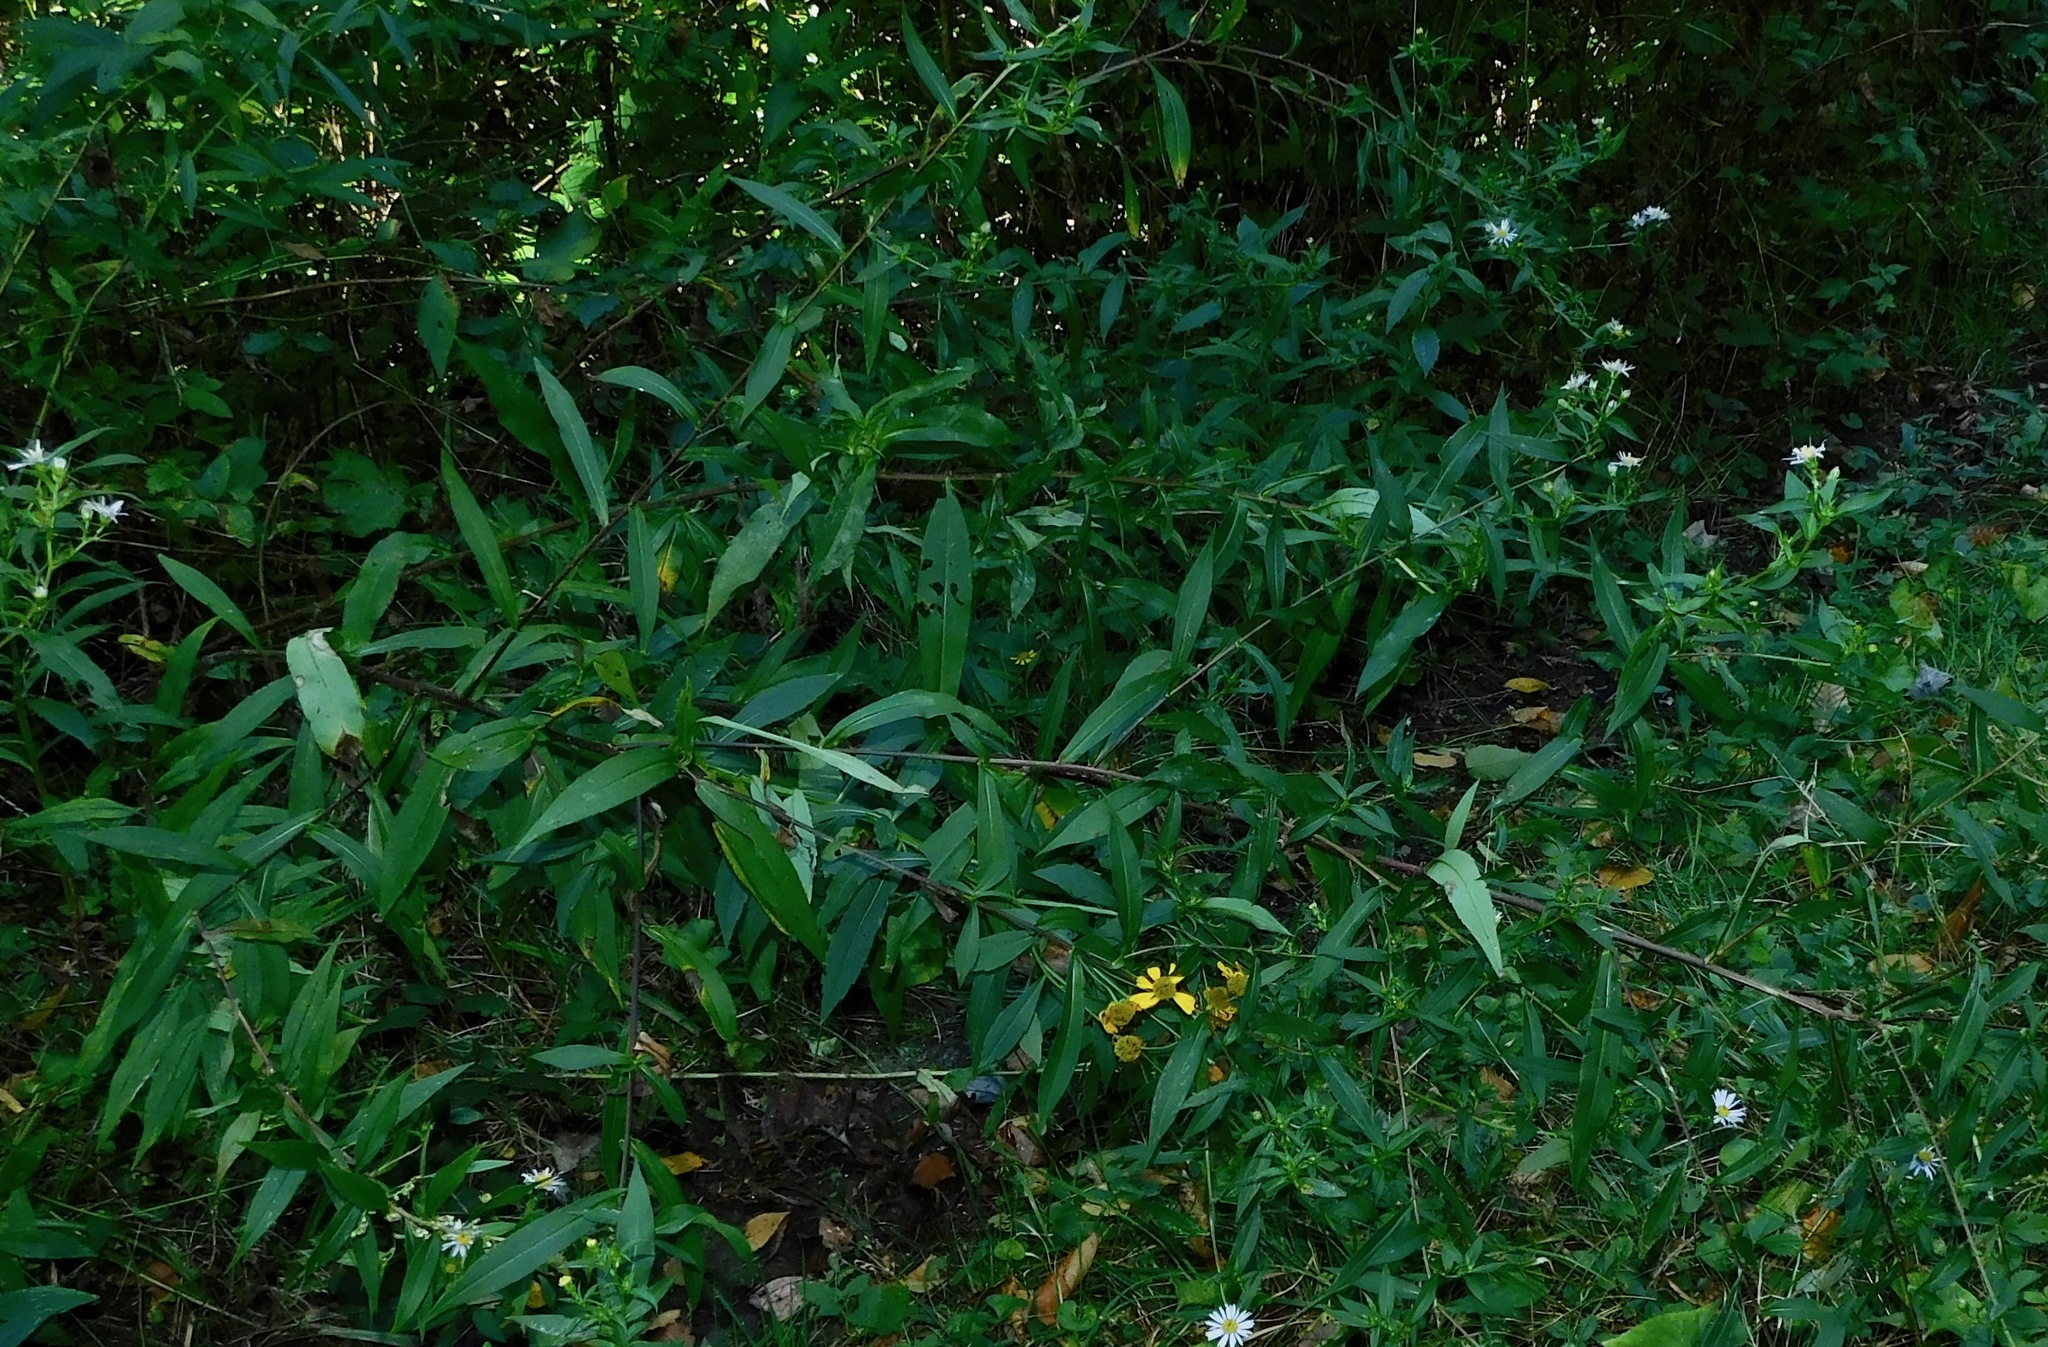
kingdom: Plantae
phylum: Tracheophyta
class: Magnoliopsida
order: Asterales
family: Asteraceae
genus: Symphyotrichum
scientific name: Symphyotrichum puniceum
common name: Bog aster
